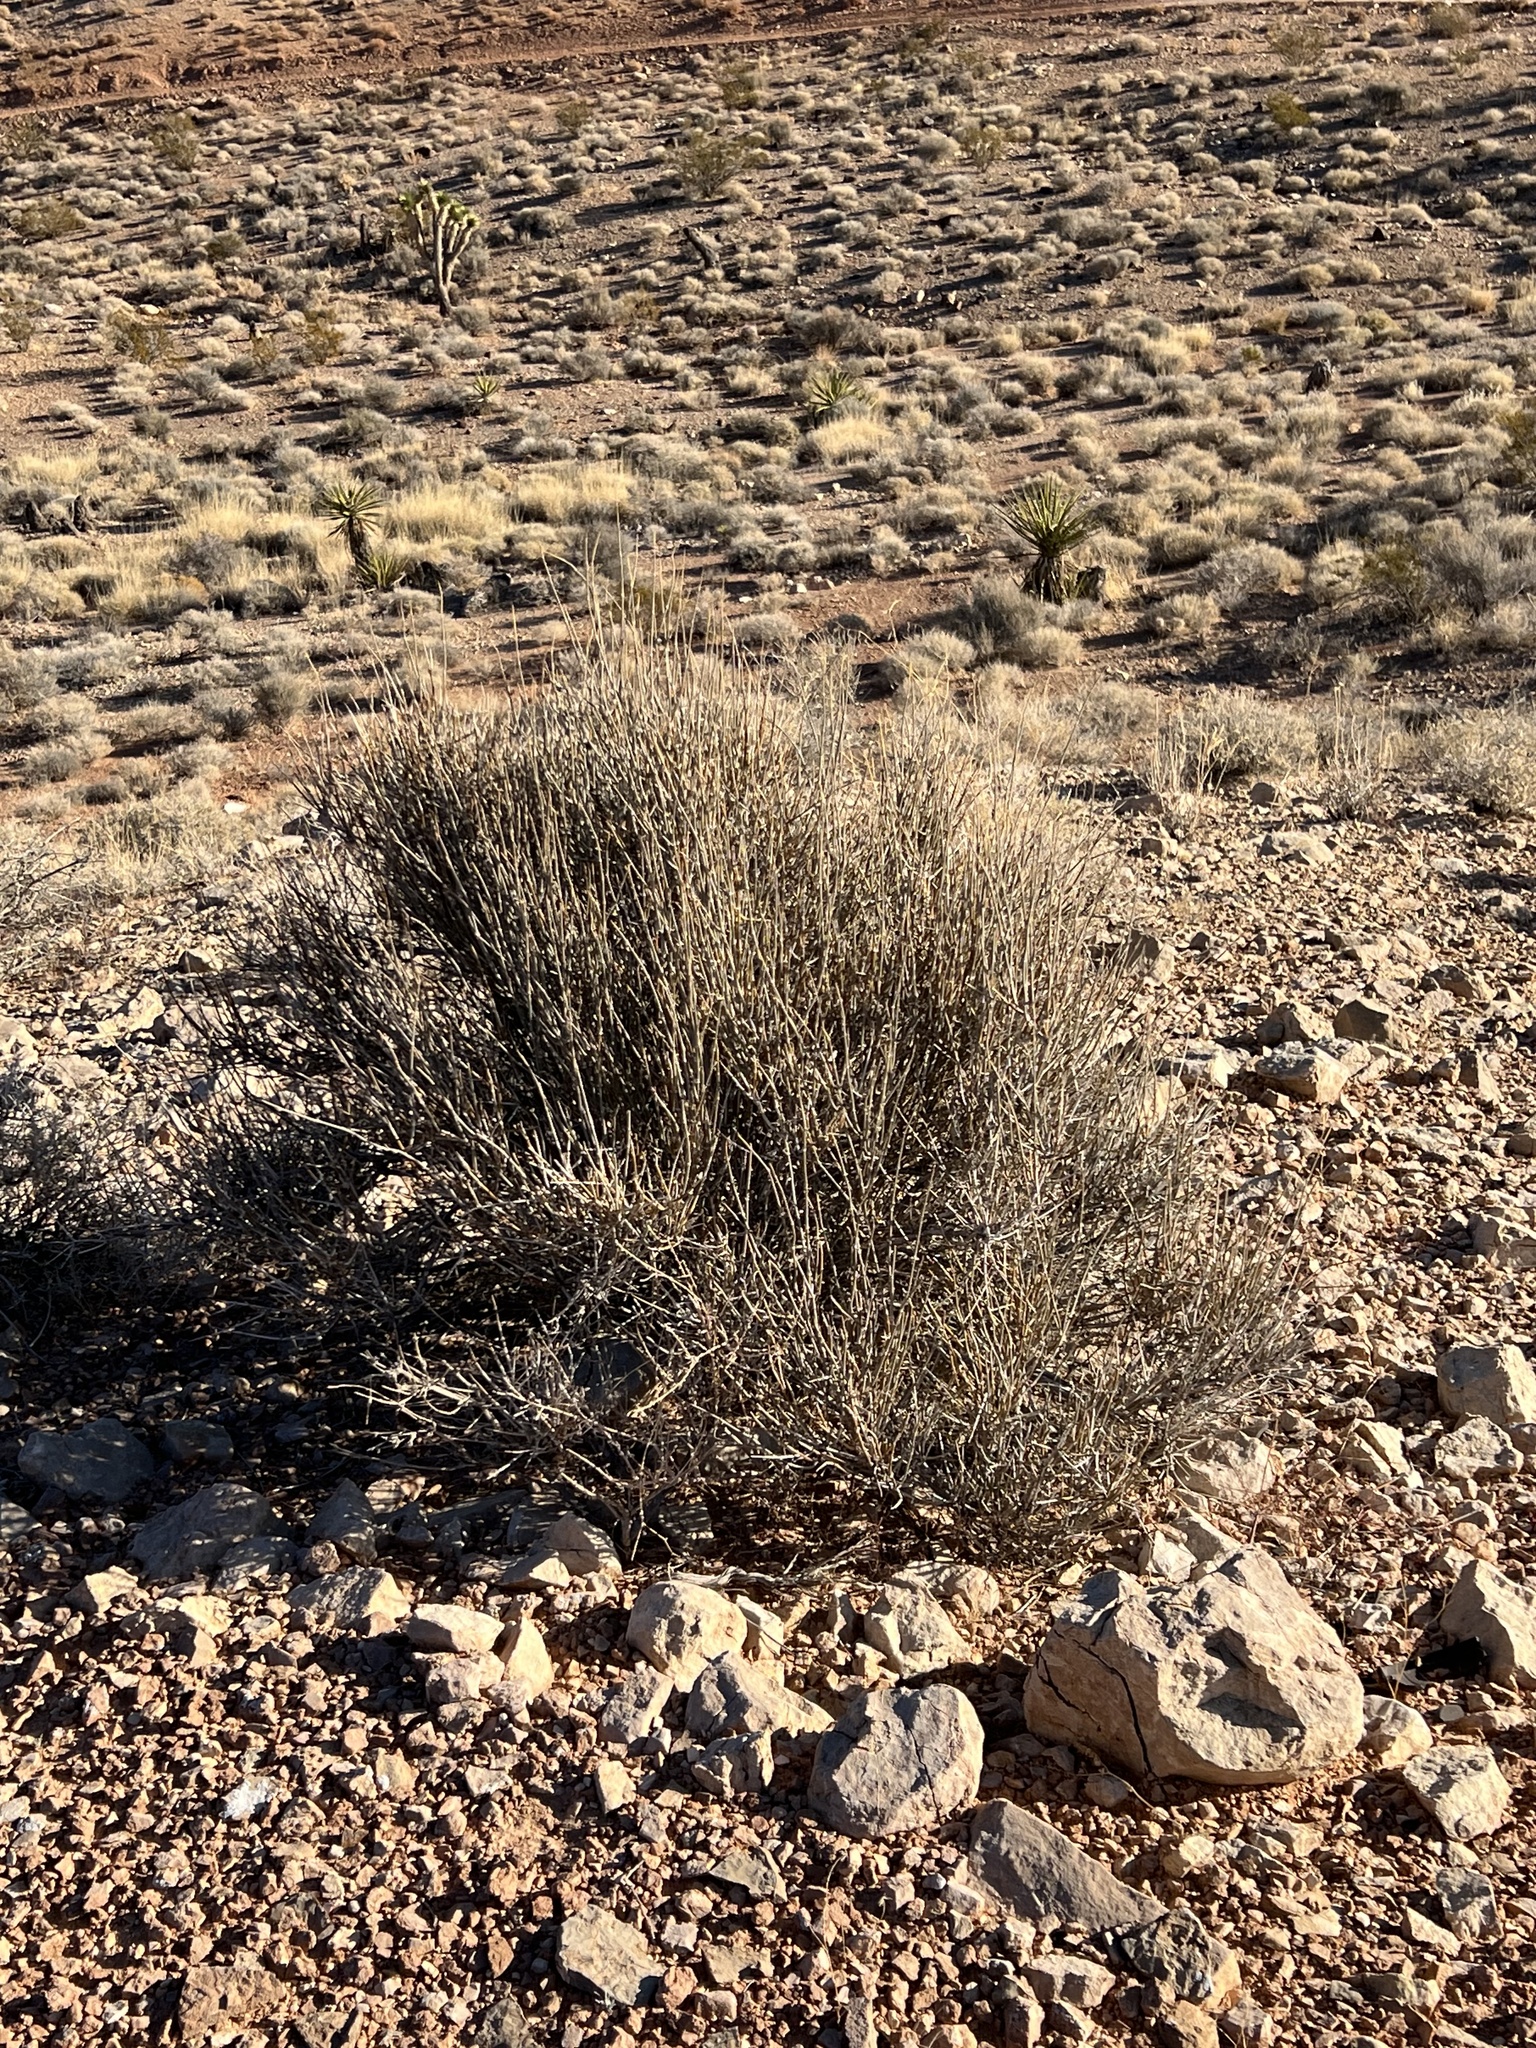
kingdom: Plantae
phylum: Tracheophyta
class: Gnetopsida
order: Ephedrales
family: Ephedraceae
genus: Ephedra
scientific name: Ephedra nevadensis
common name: Gray ephedra
